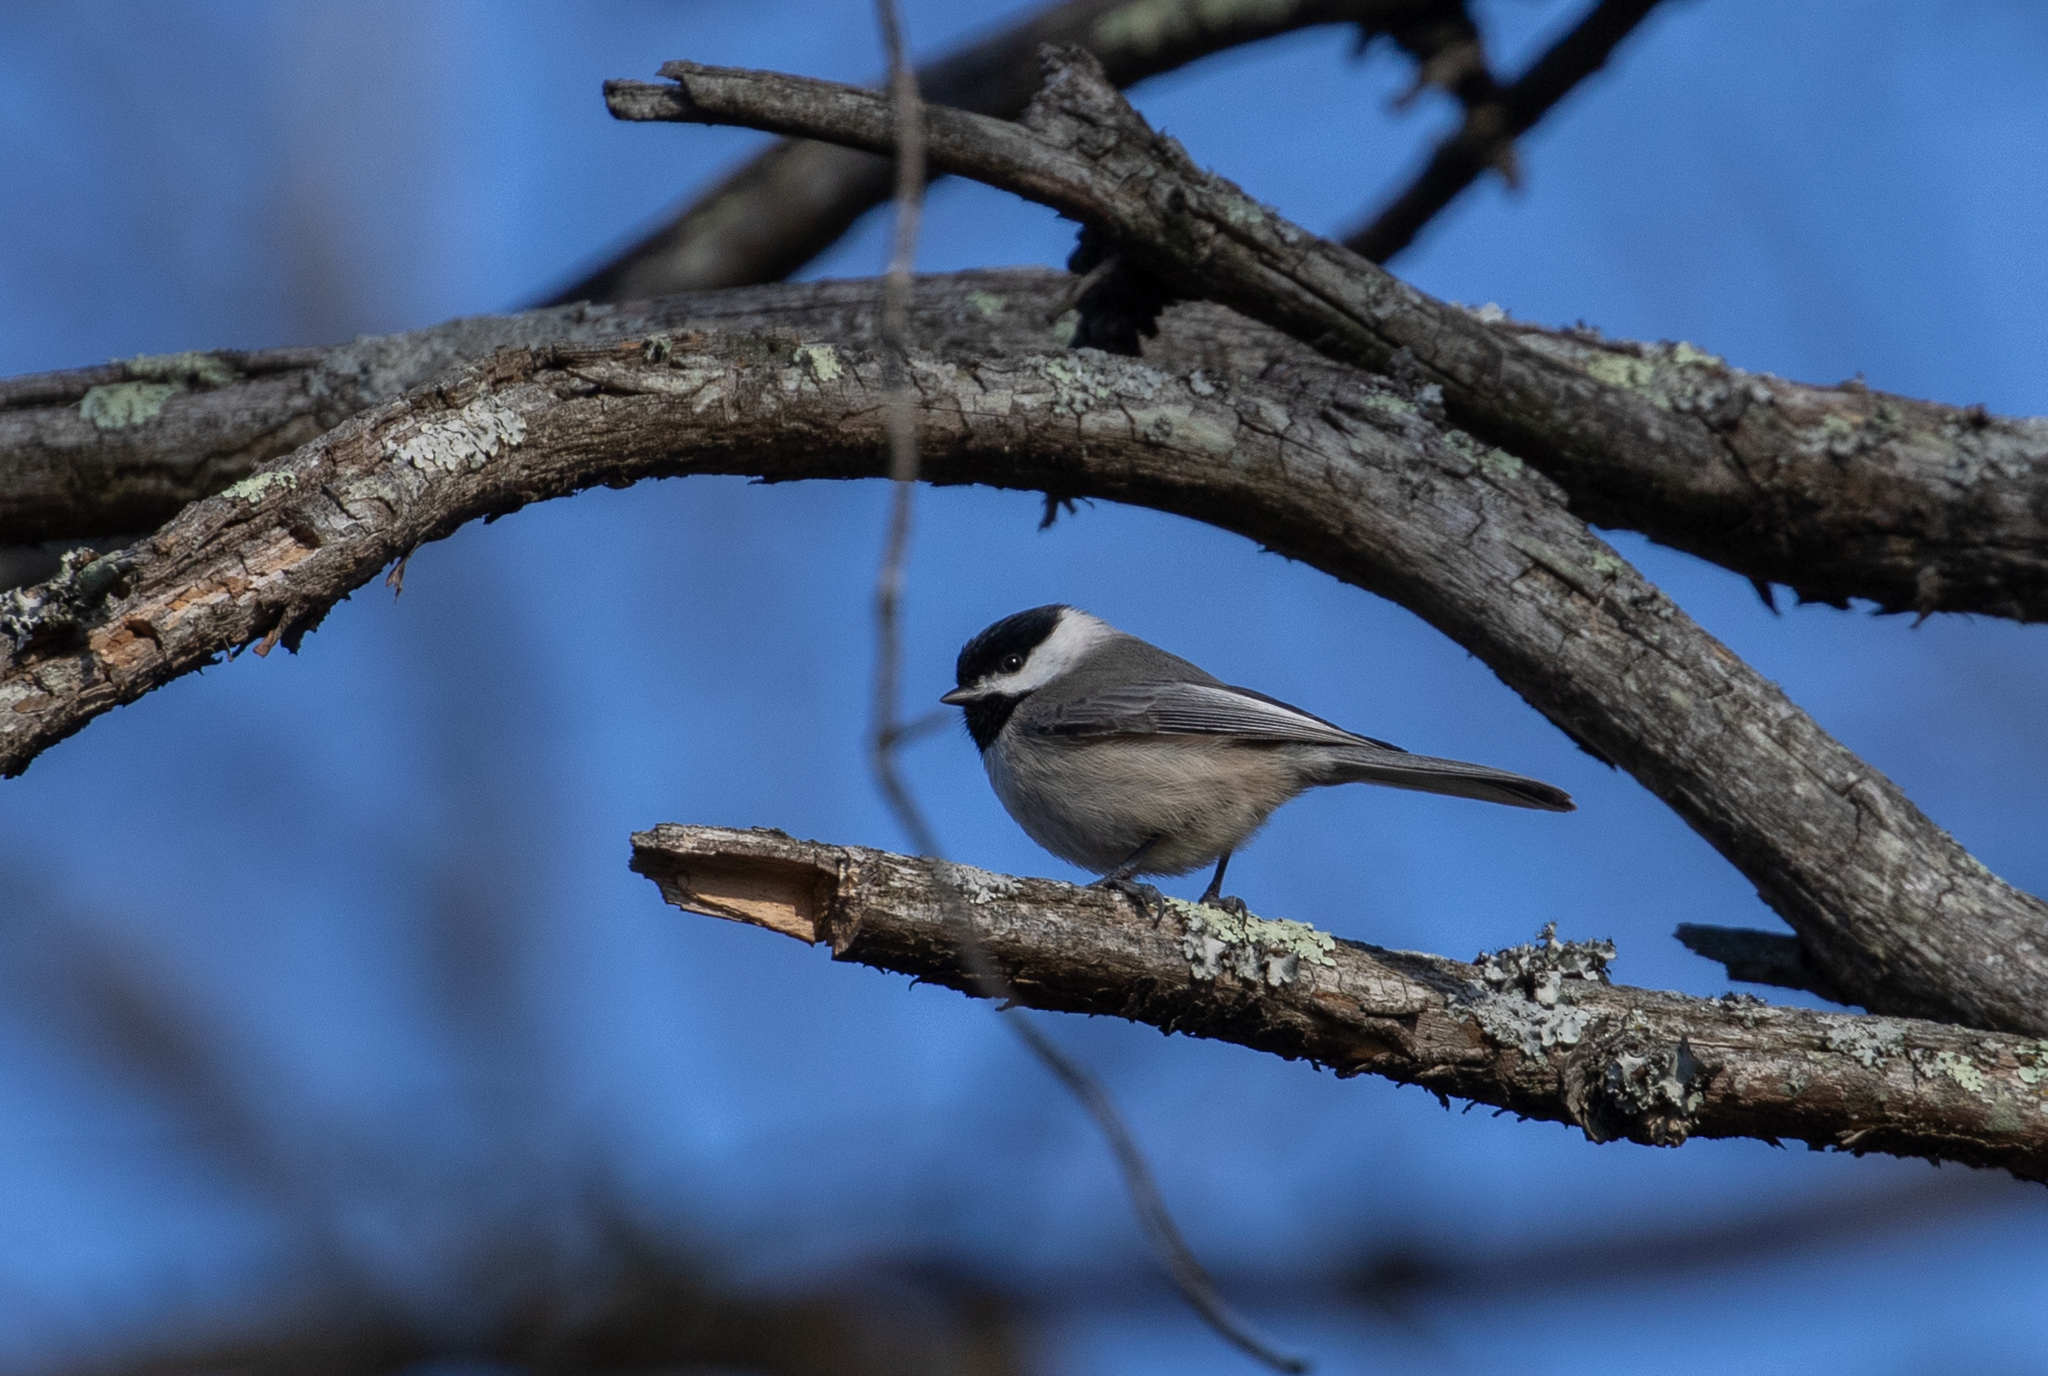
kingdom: Animalia
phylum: Chordata
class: Aves
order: Passeriformes
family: Paridae
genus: Poecile
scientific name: Poecile carolinensis
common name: Carolina chickadee
